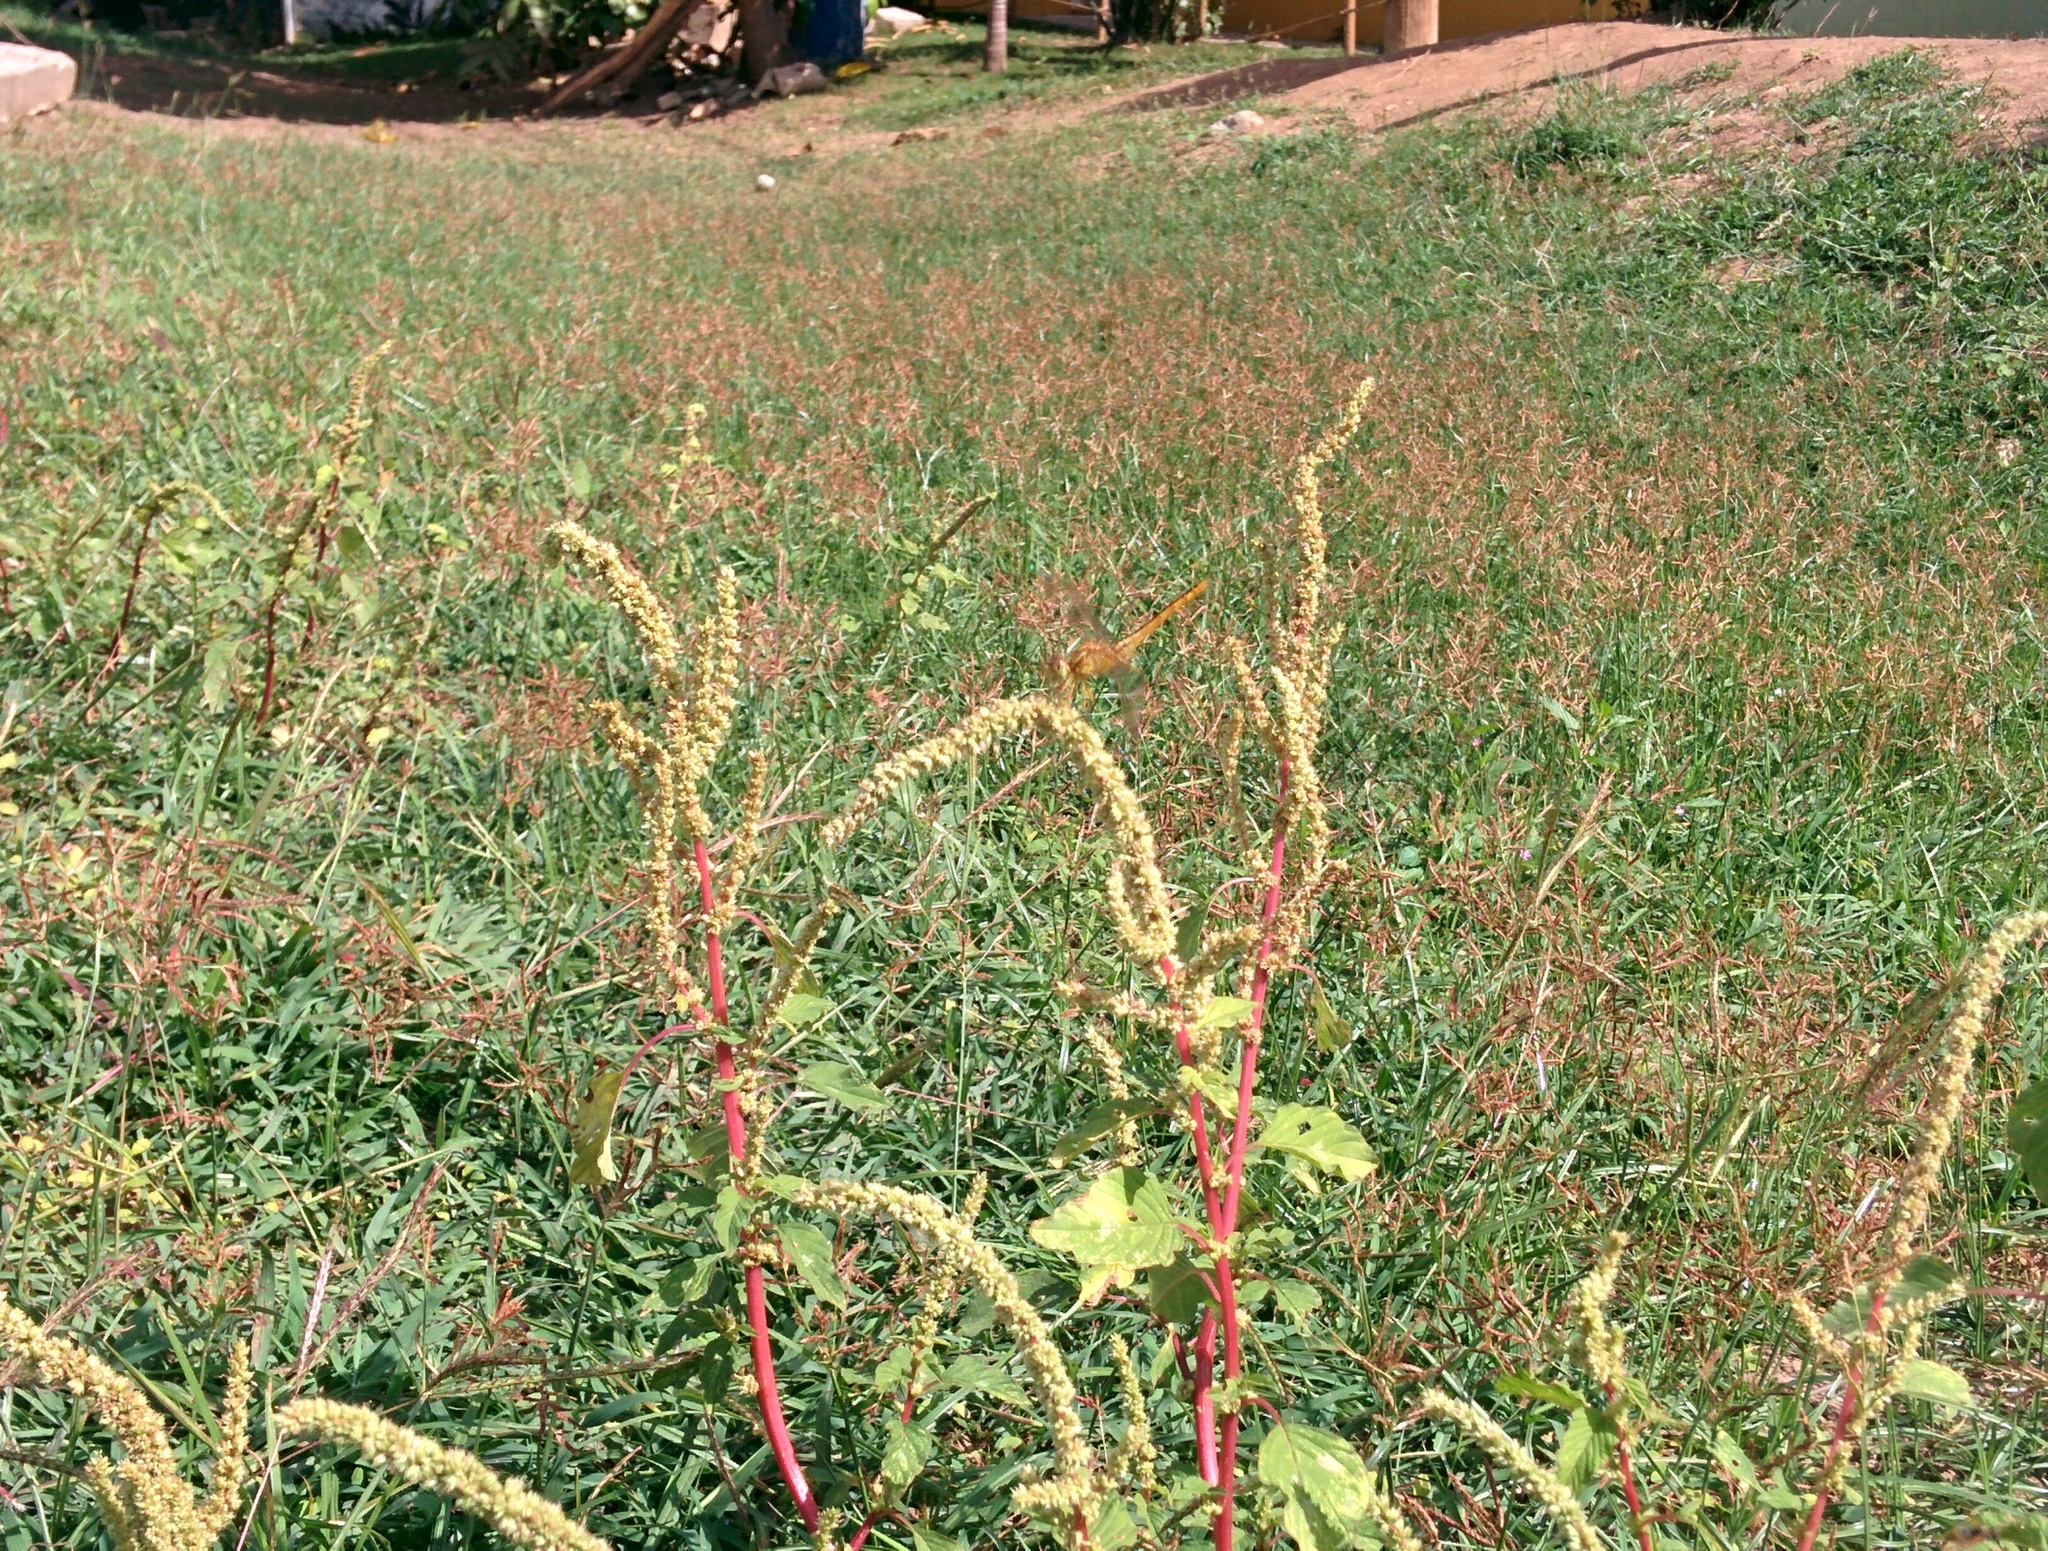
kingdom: Animalia
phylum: Arthropoda
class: Insecta
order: Odonata
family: Libellulidae
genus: Crocothemis
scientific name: Crocothemis servilia
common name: Scarlet skimmer
